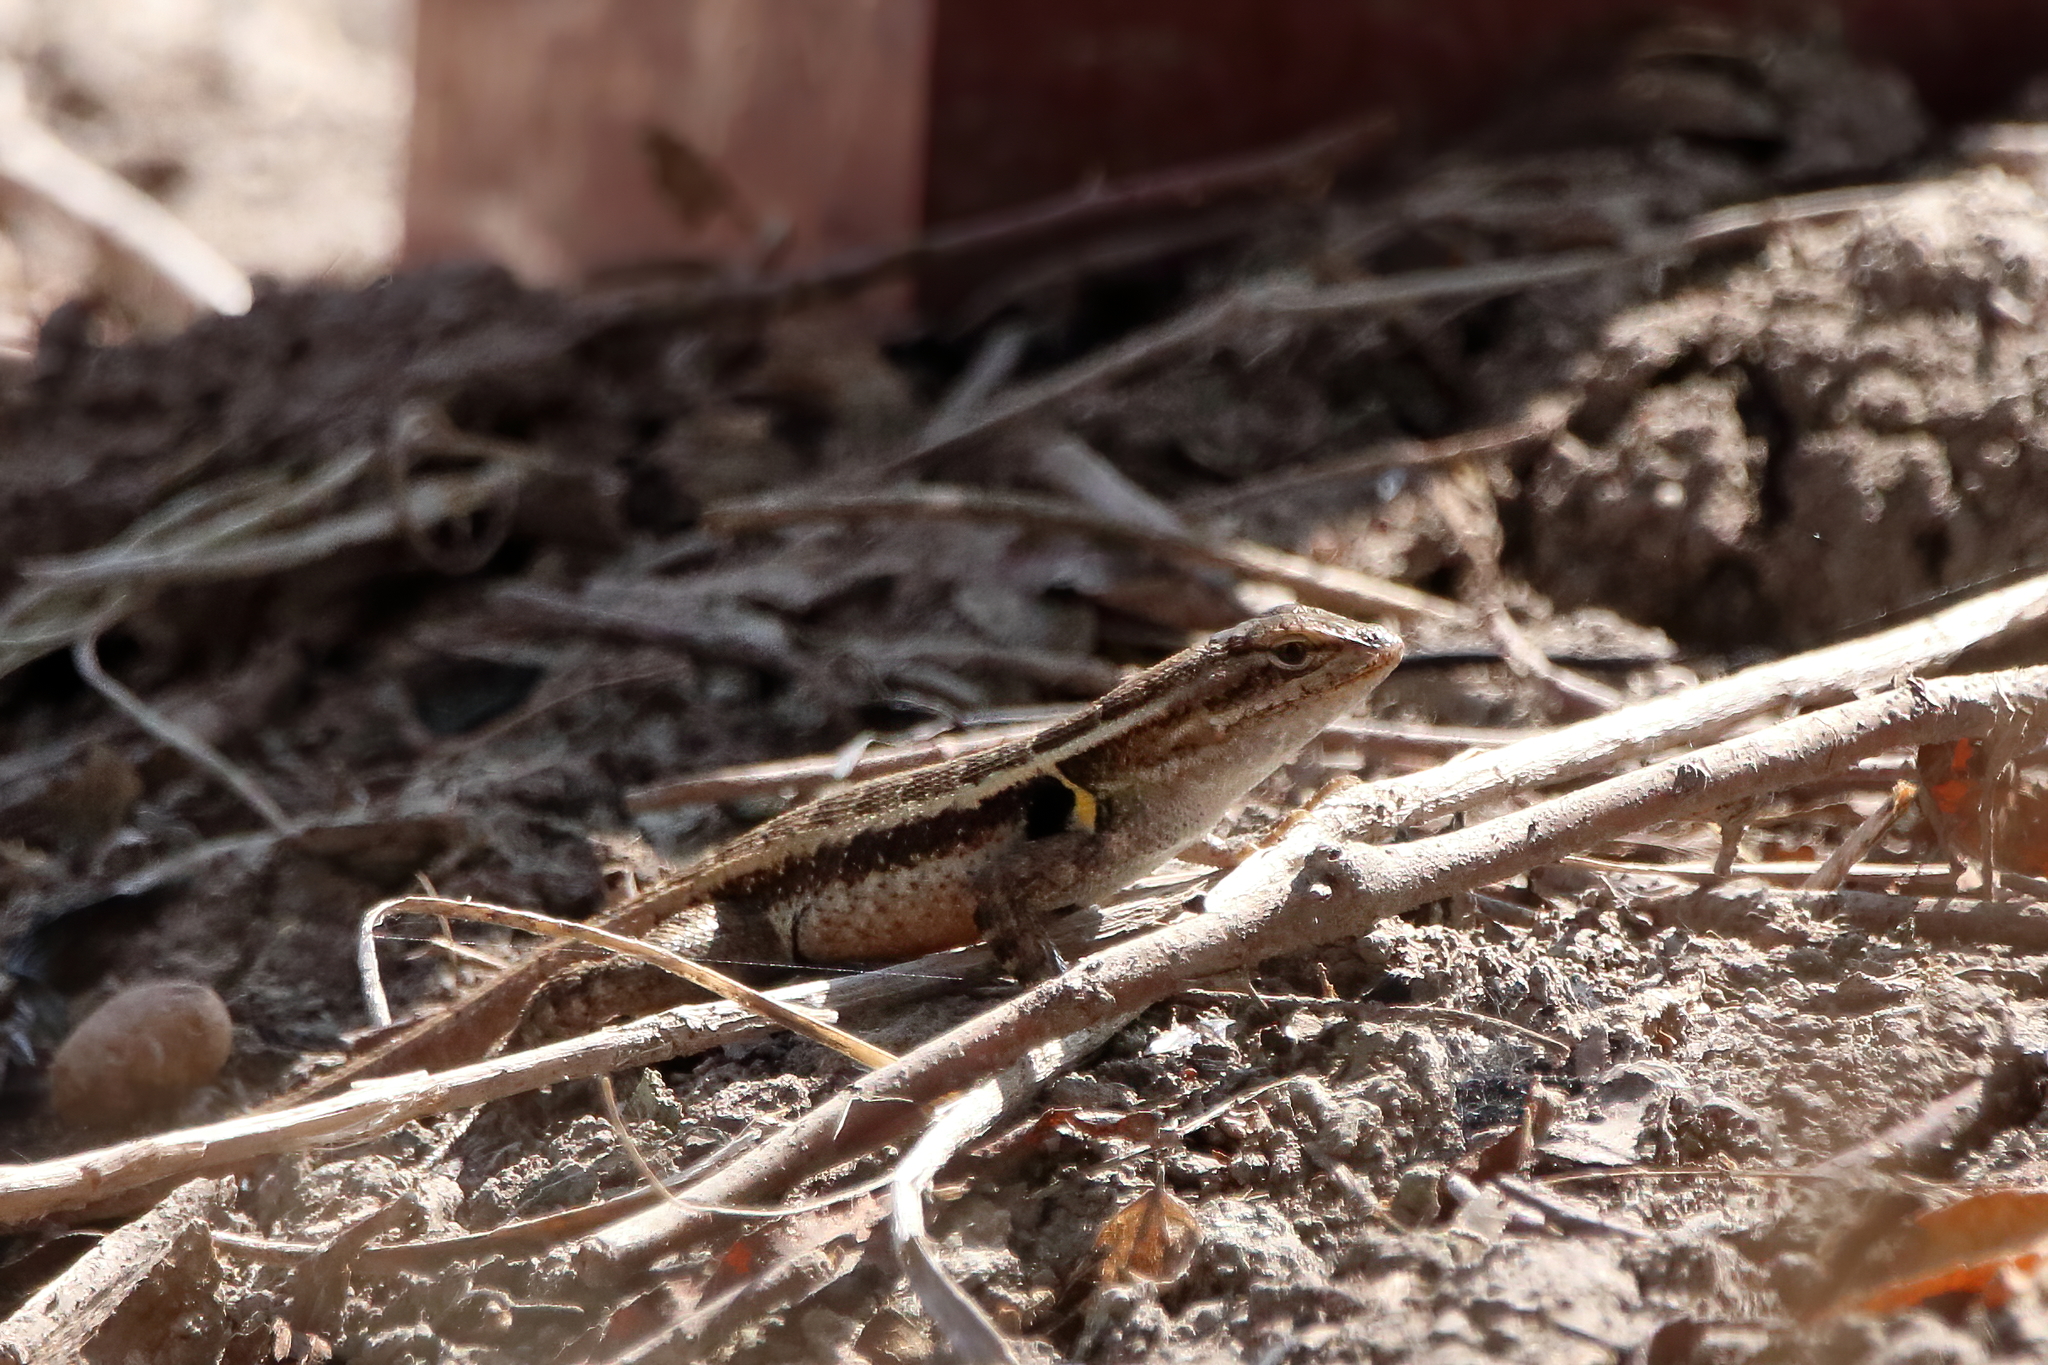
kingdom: Animalia
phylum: Chordata
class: Squamata
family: Phrynosomatidae
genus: Sceloporus
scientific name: Sceloporus variabilis
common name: Rosebelly lizard
